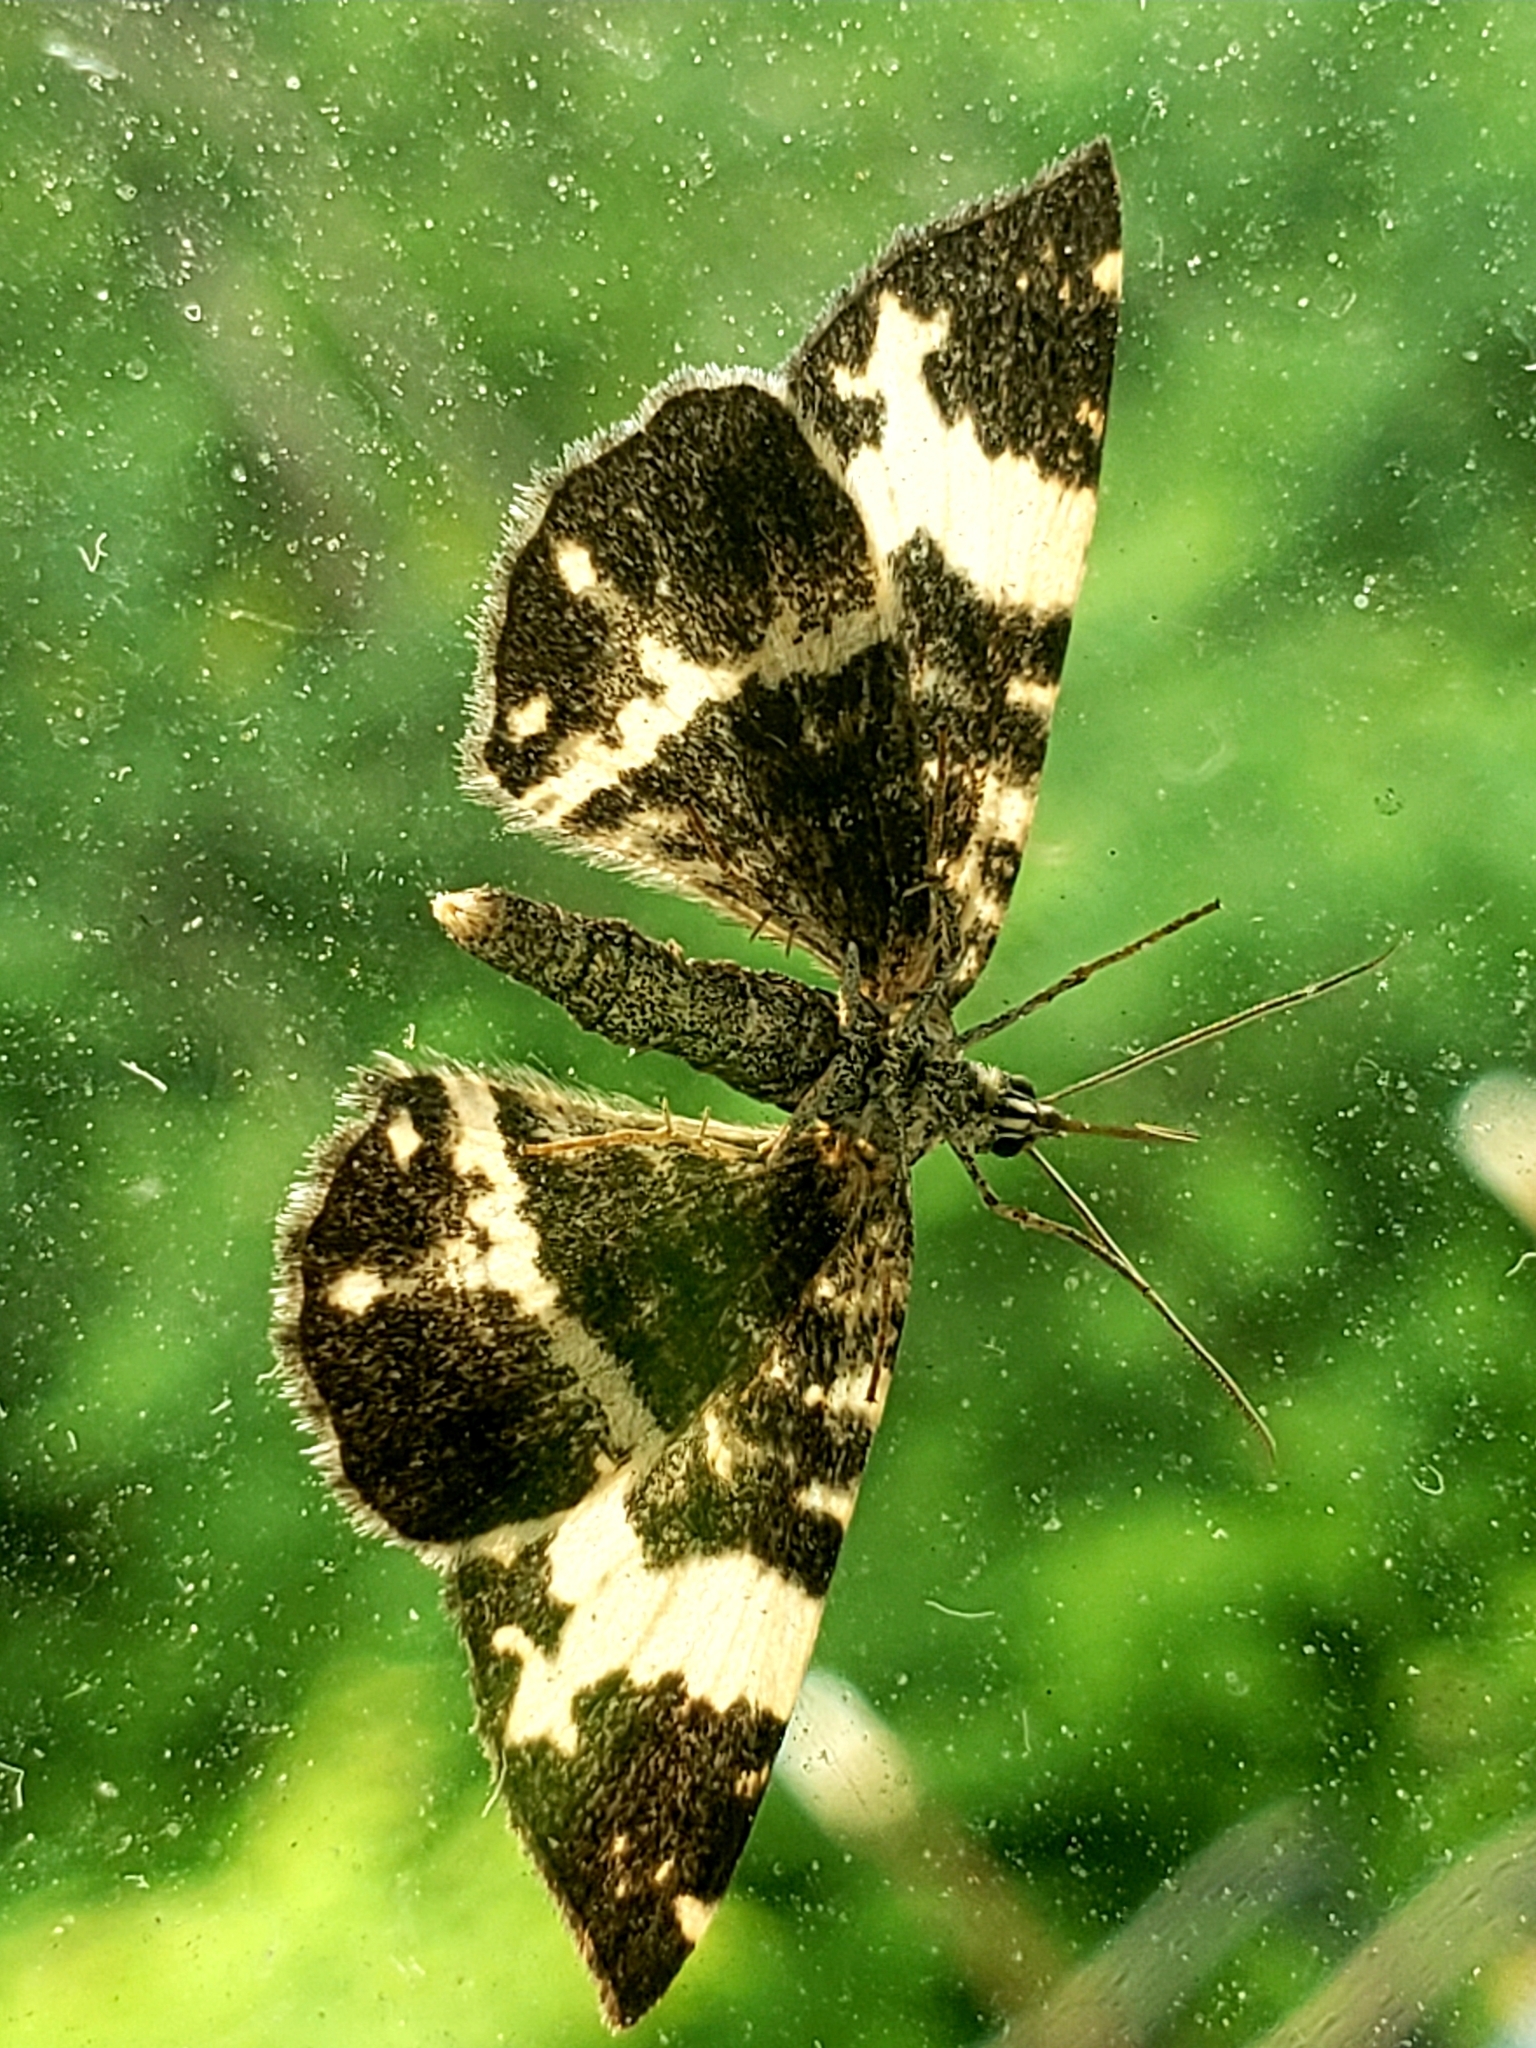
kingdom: Animalia
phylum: Arthropoda
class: Insecta
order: Lepidoptera
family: Geometridae
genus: Rheumaptera
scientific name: Rheumaptera hastata
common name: Argent & sable
